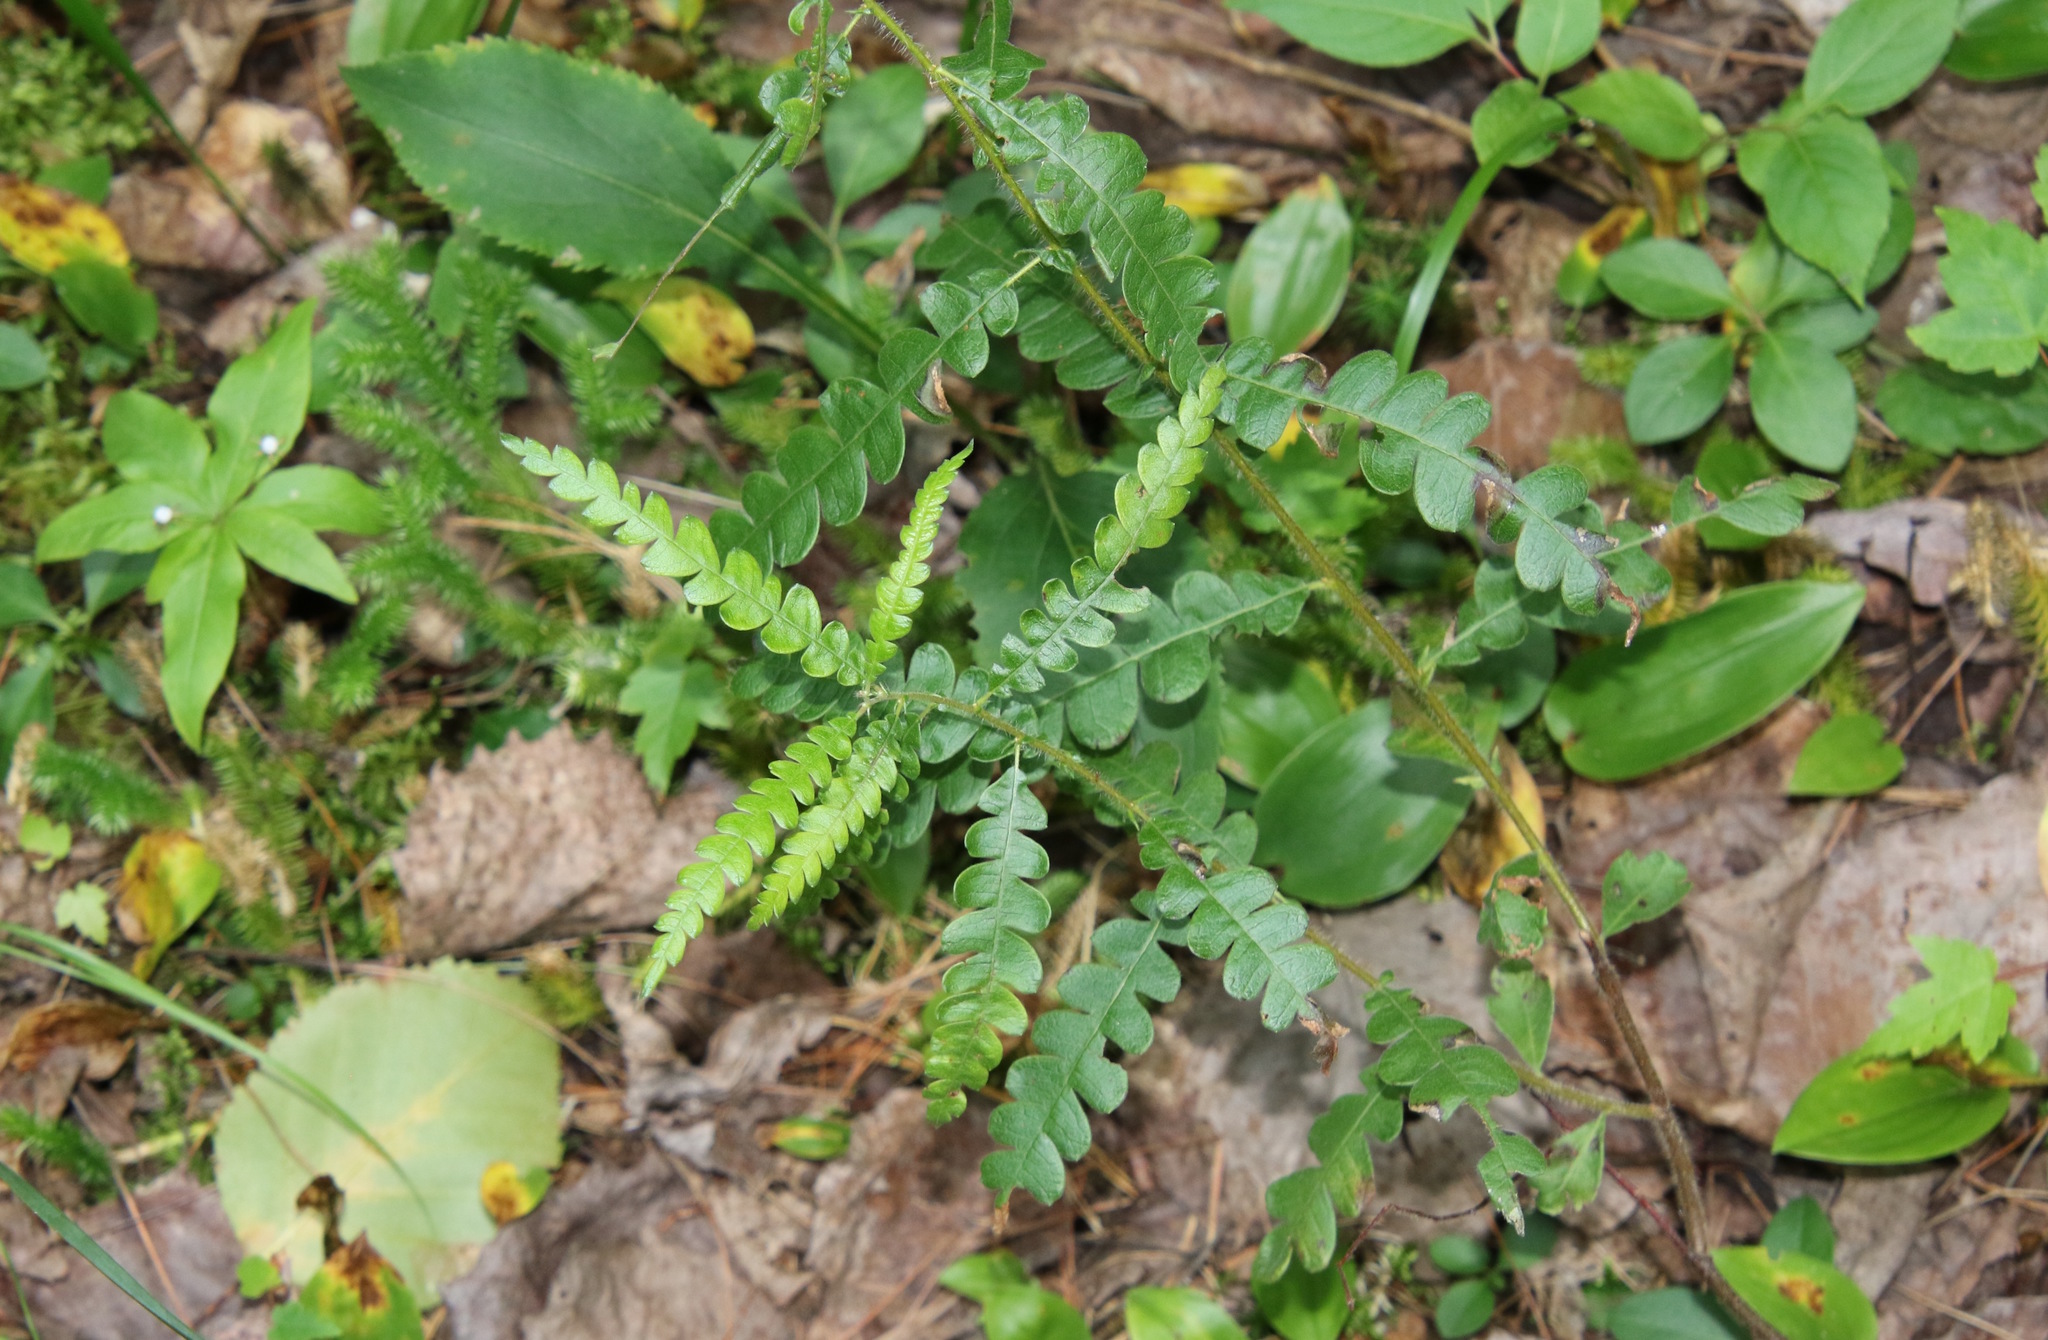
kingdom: Plantae
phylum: Tracheophyta
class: Magnoliopsida
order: Fagales
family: Myricaceae
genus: Comptonia
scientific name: Comptonia peregrina
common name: Sweet-fern
